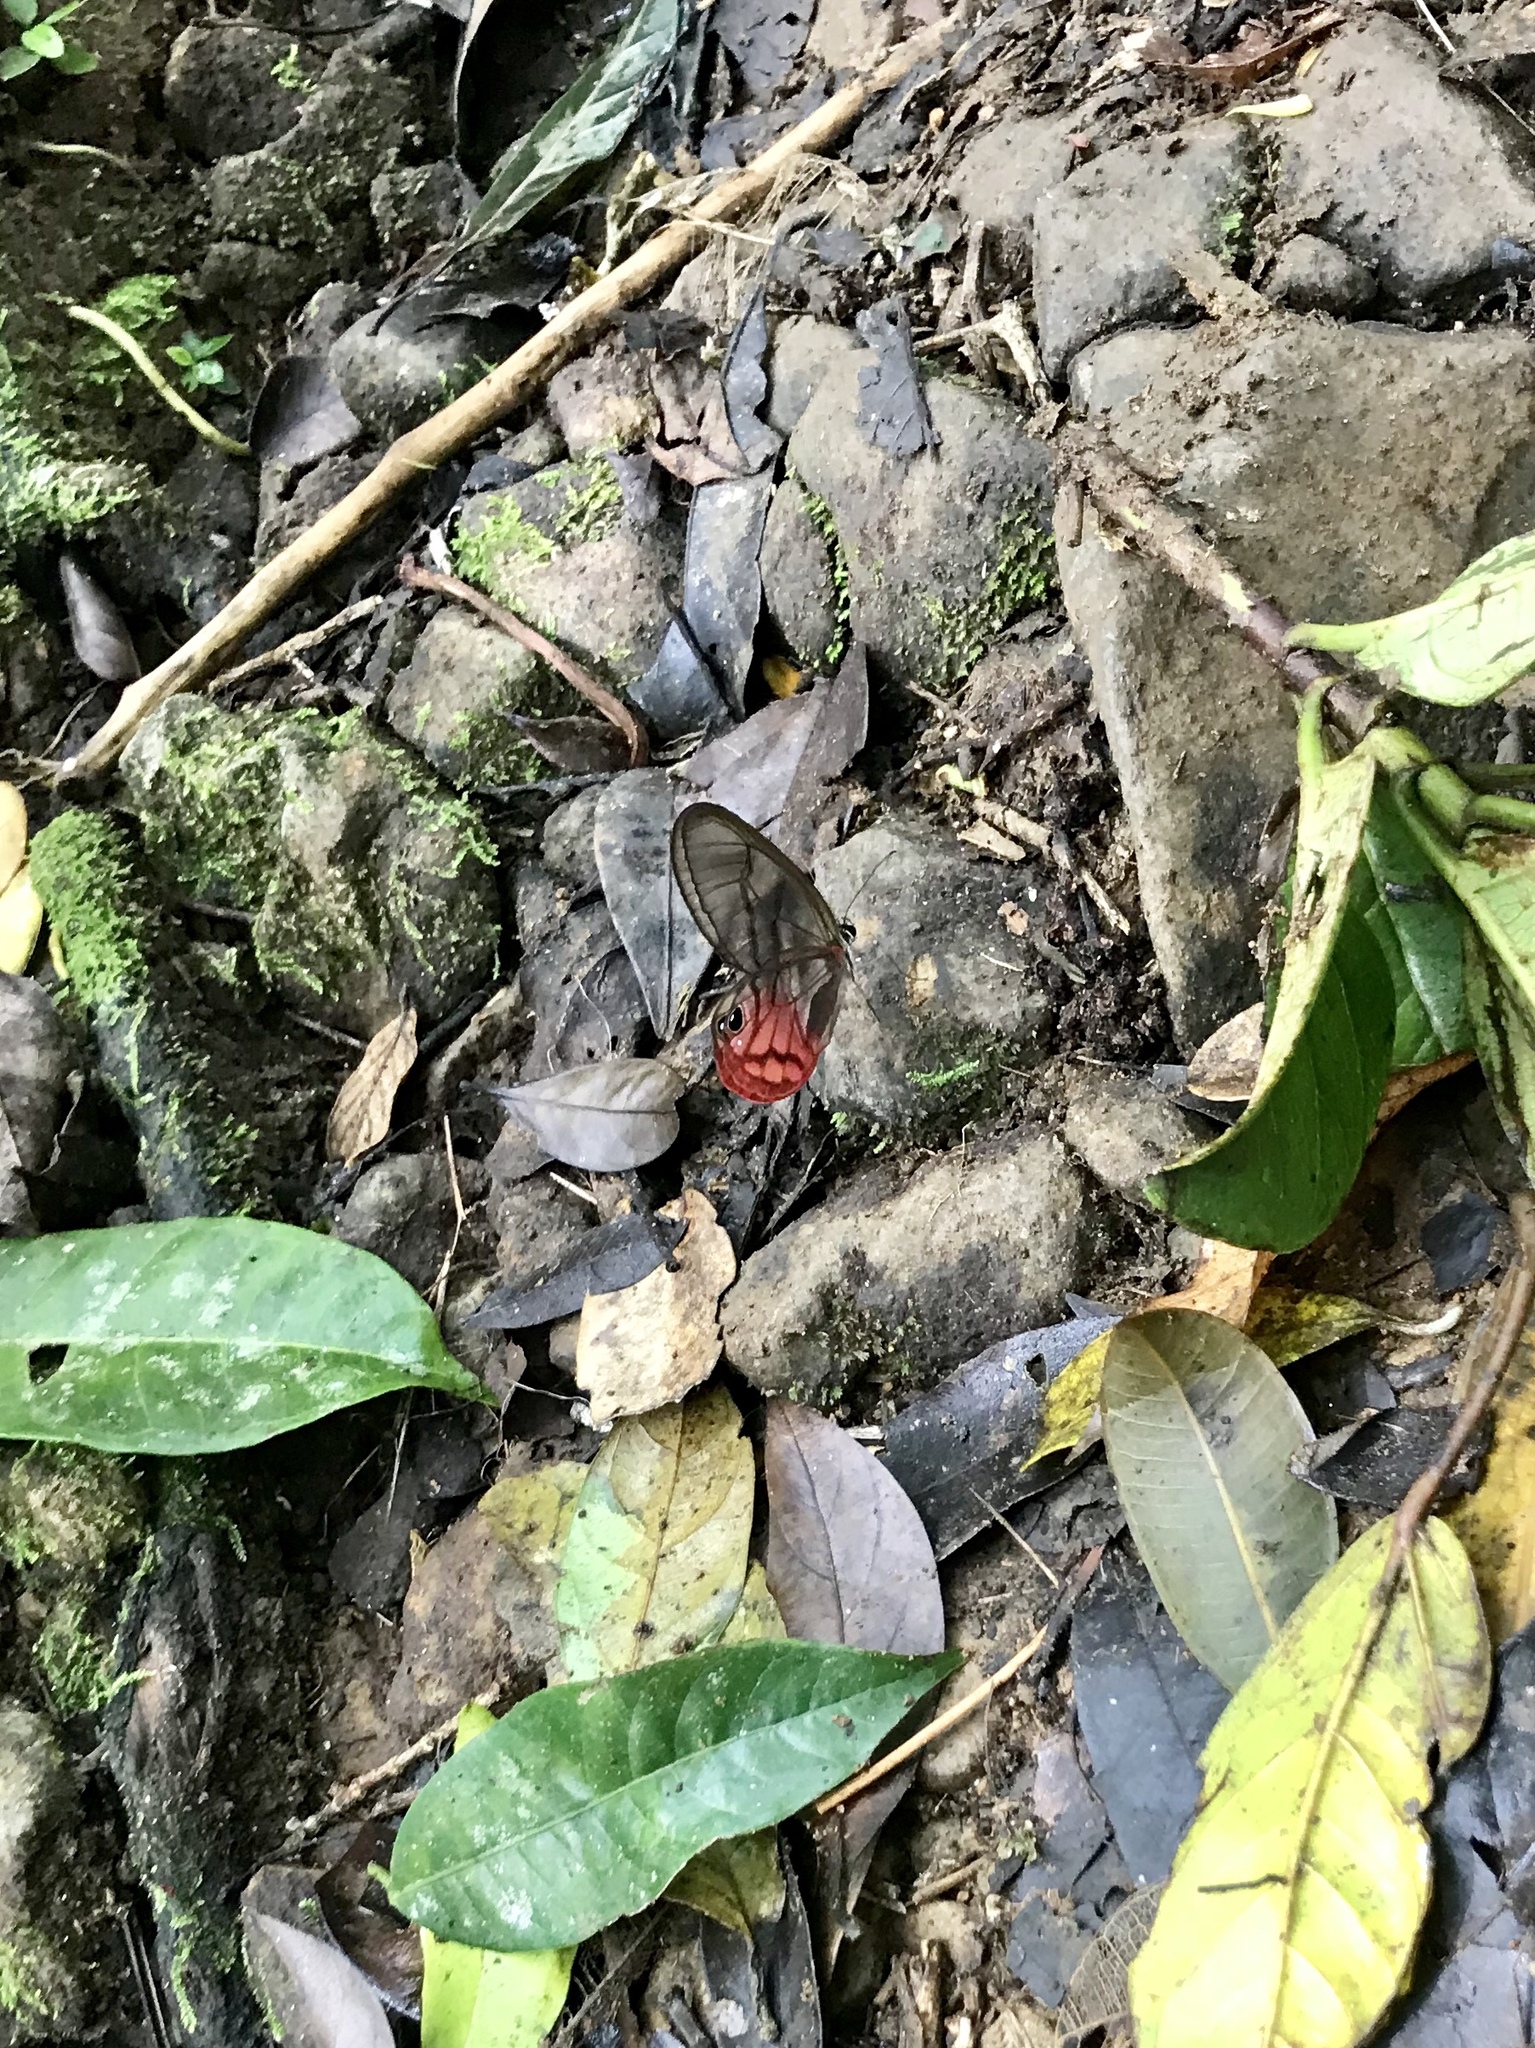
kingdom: Animalia
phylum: Arthropoda
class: Insecta
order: Lepidoptera
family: Nymphalidae
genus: Cithaerias
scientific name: Cithaerias pireta
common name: Rusted clearwing-satyr
